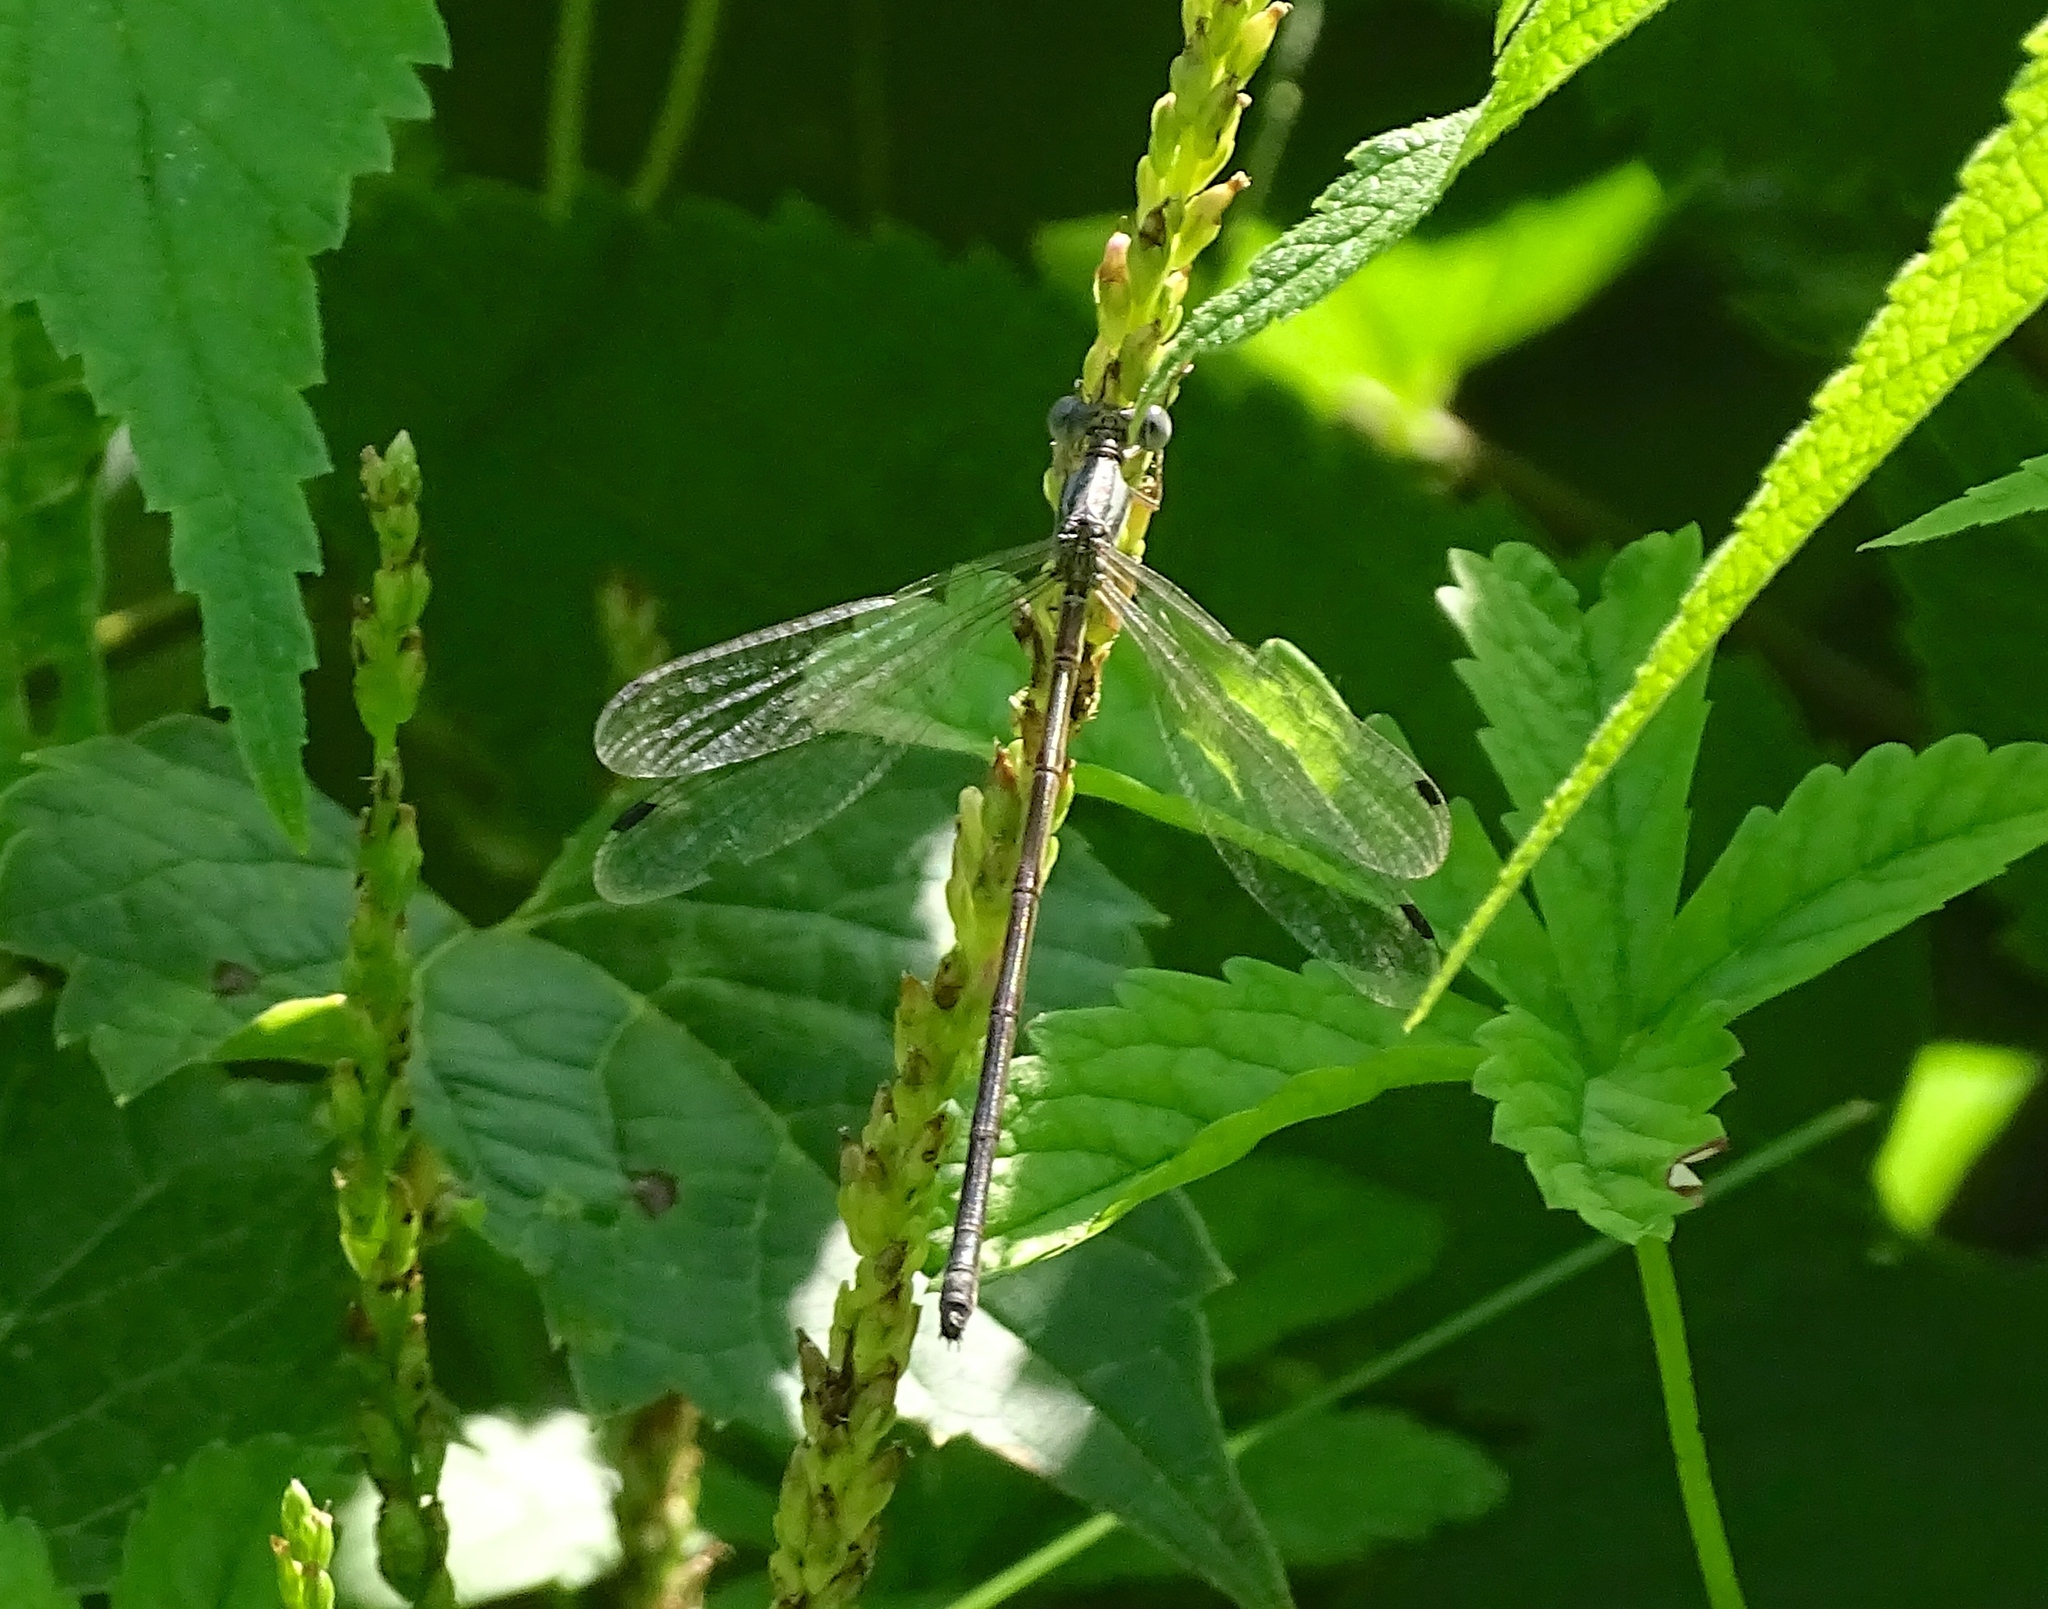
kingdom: Animalia
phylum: Arthropoda
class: Insecta
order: Odonata
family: Lestidae
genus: Lestes
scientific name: Lestes rectangularis
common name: Slender spreadwing
